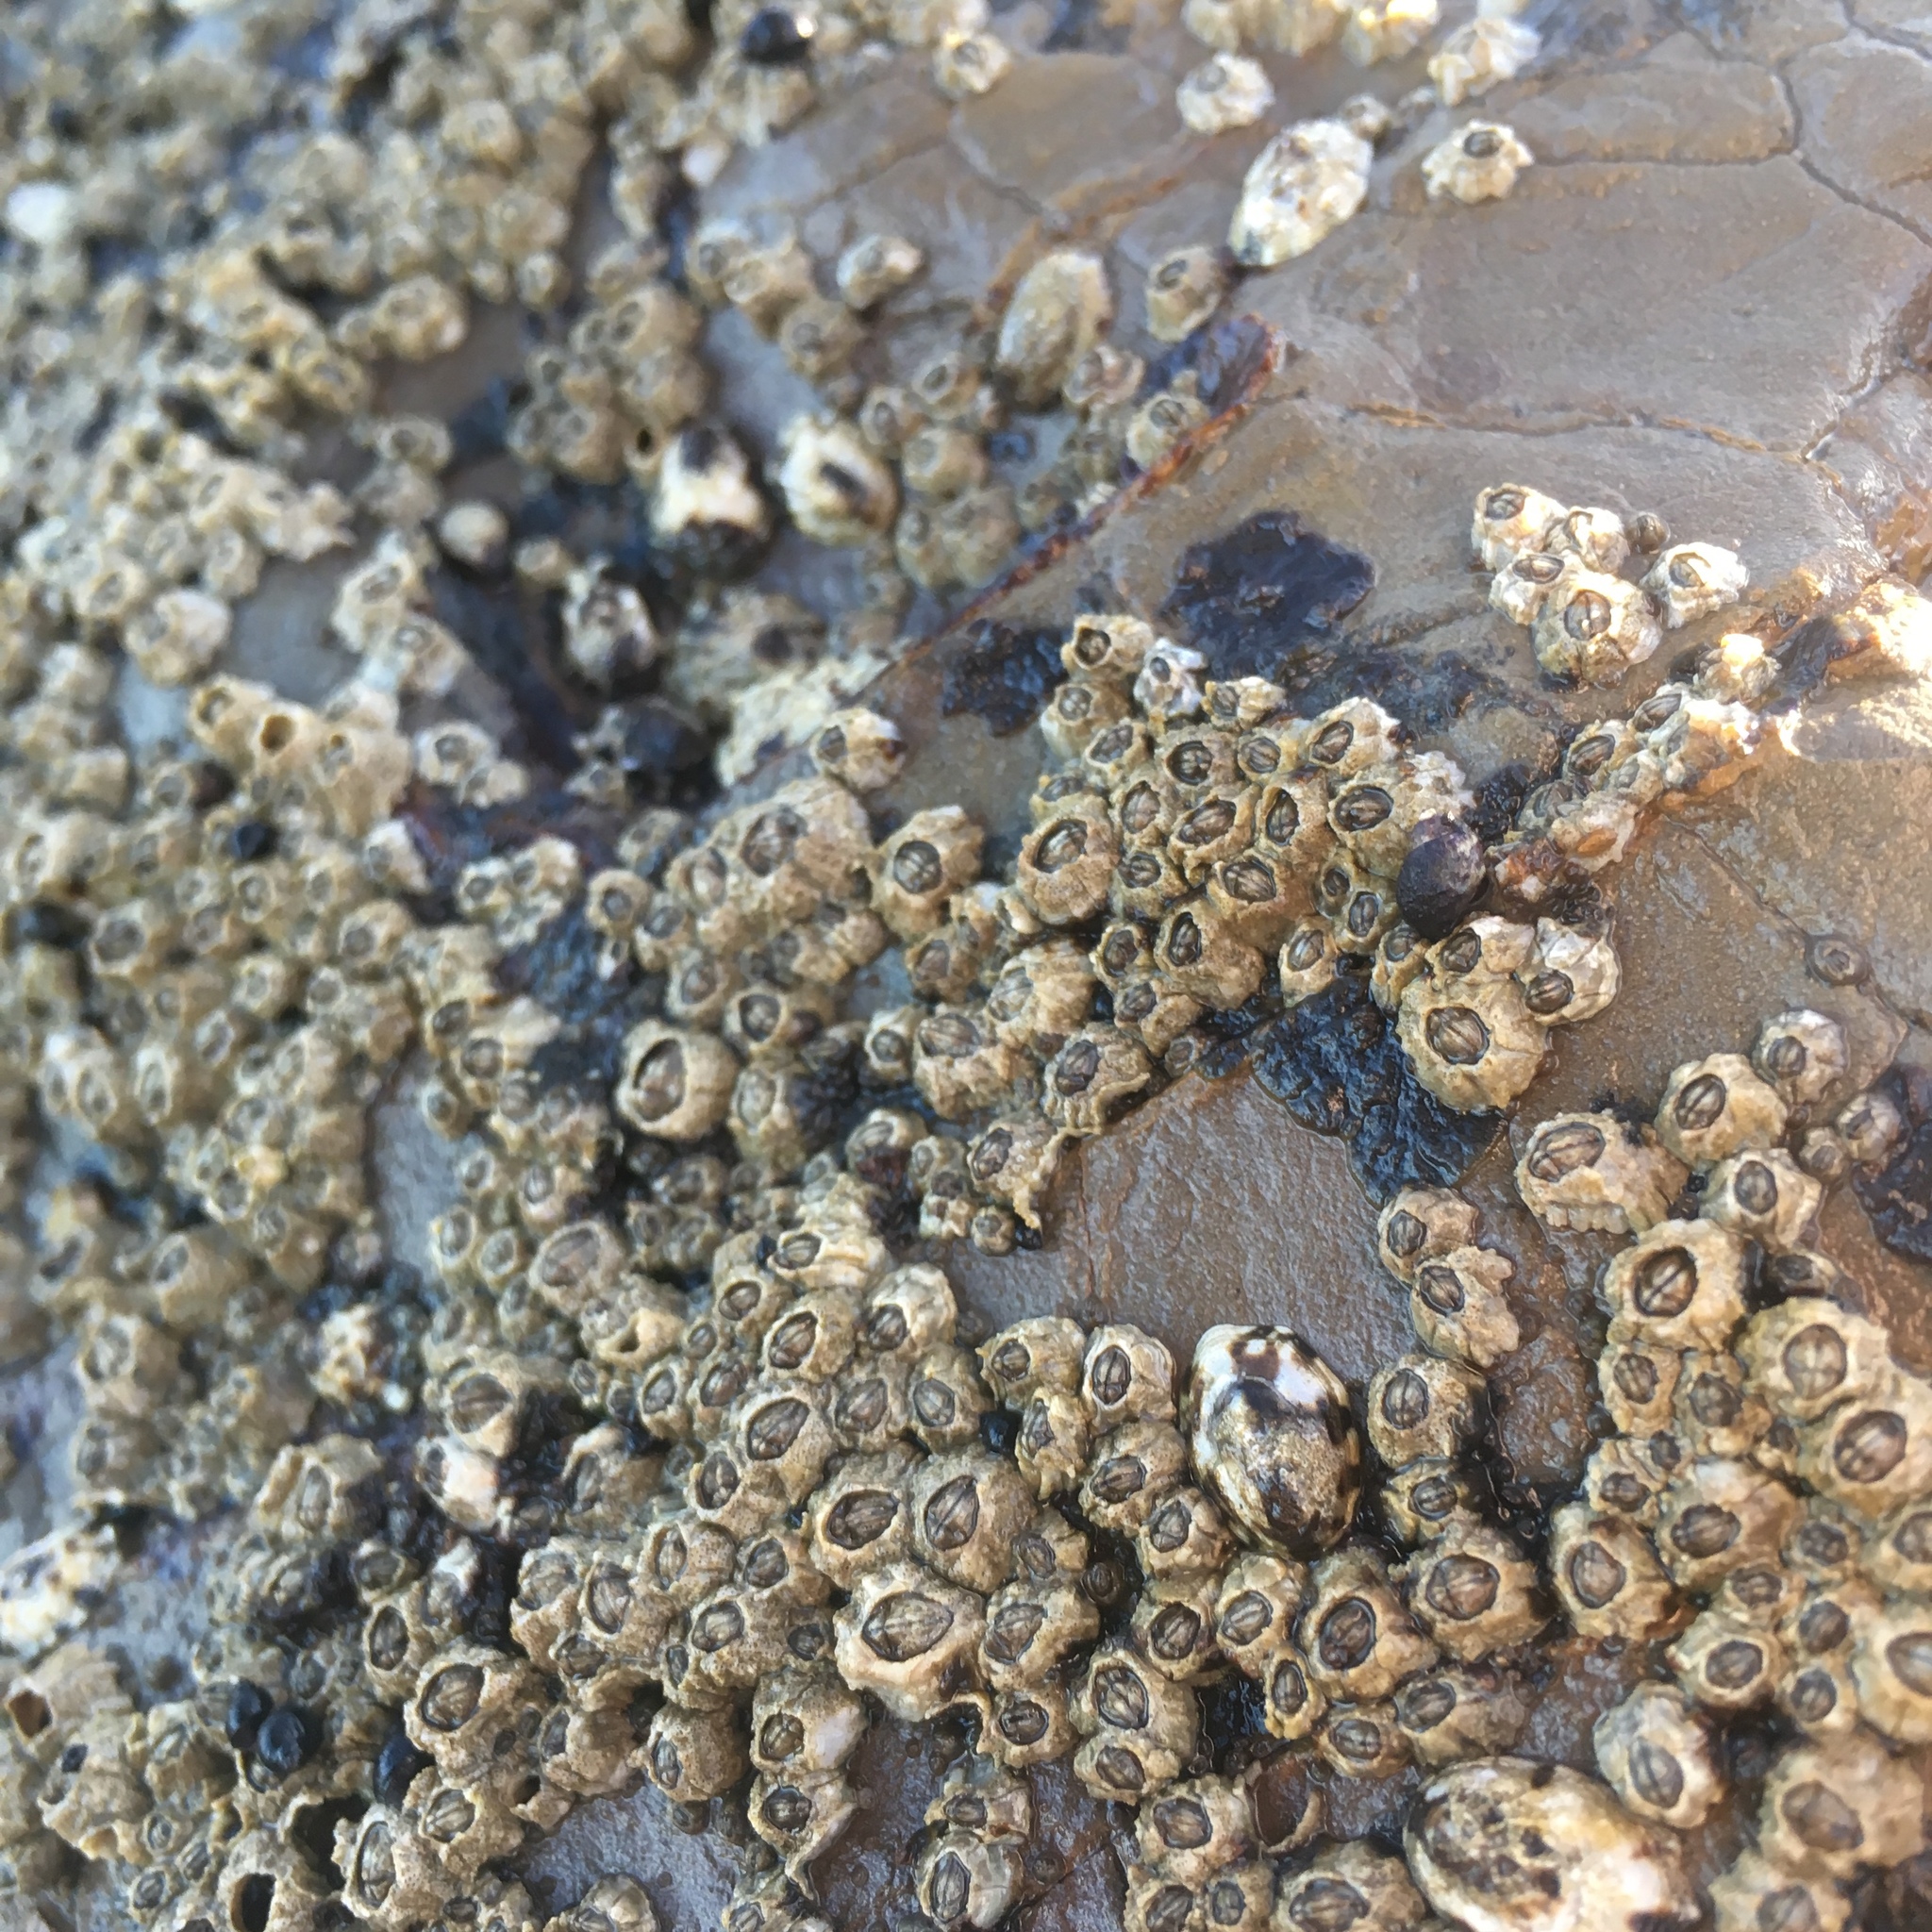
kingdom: Animalia
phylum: Arthropoda
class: Maxillopoda
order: Sessilia
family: Chthamalidae
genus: Chthamalus
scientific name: Chthamalus dalli
